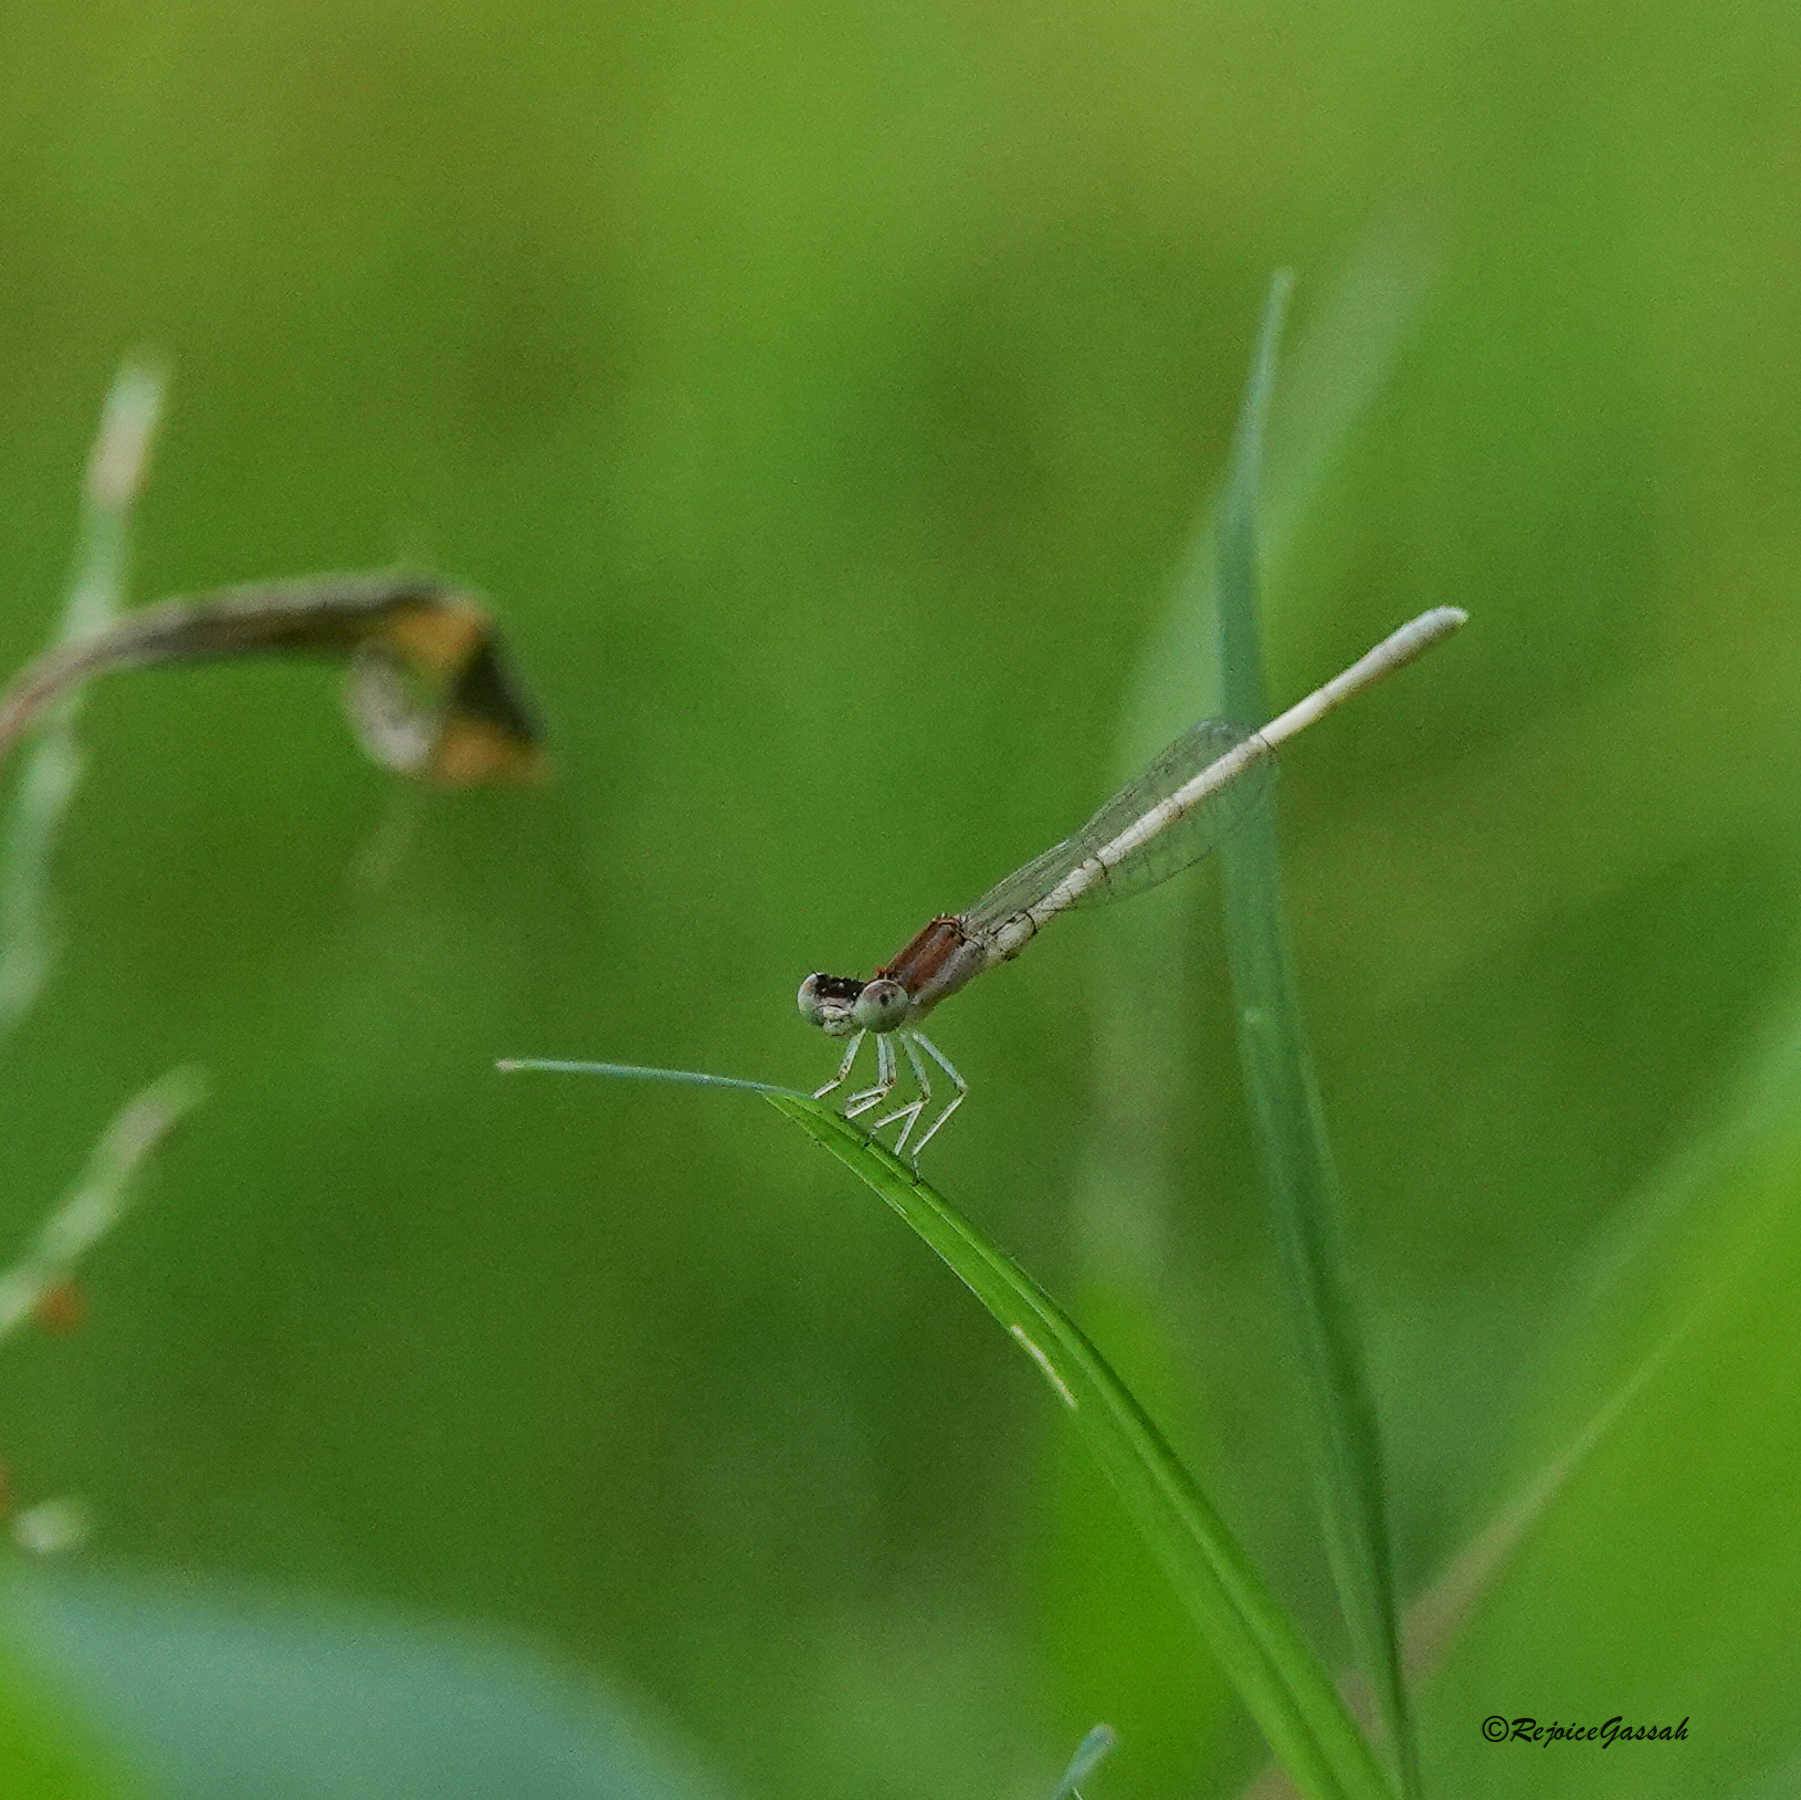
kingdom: Animalia
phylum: Arthropoda
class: Insecta
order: Odonata
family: Coenagrionidae
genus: Agriocnemis
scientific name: Agriocnemis lacteola
